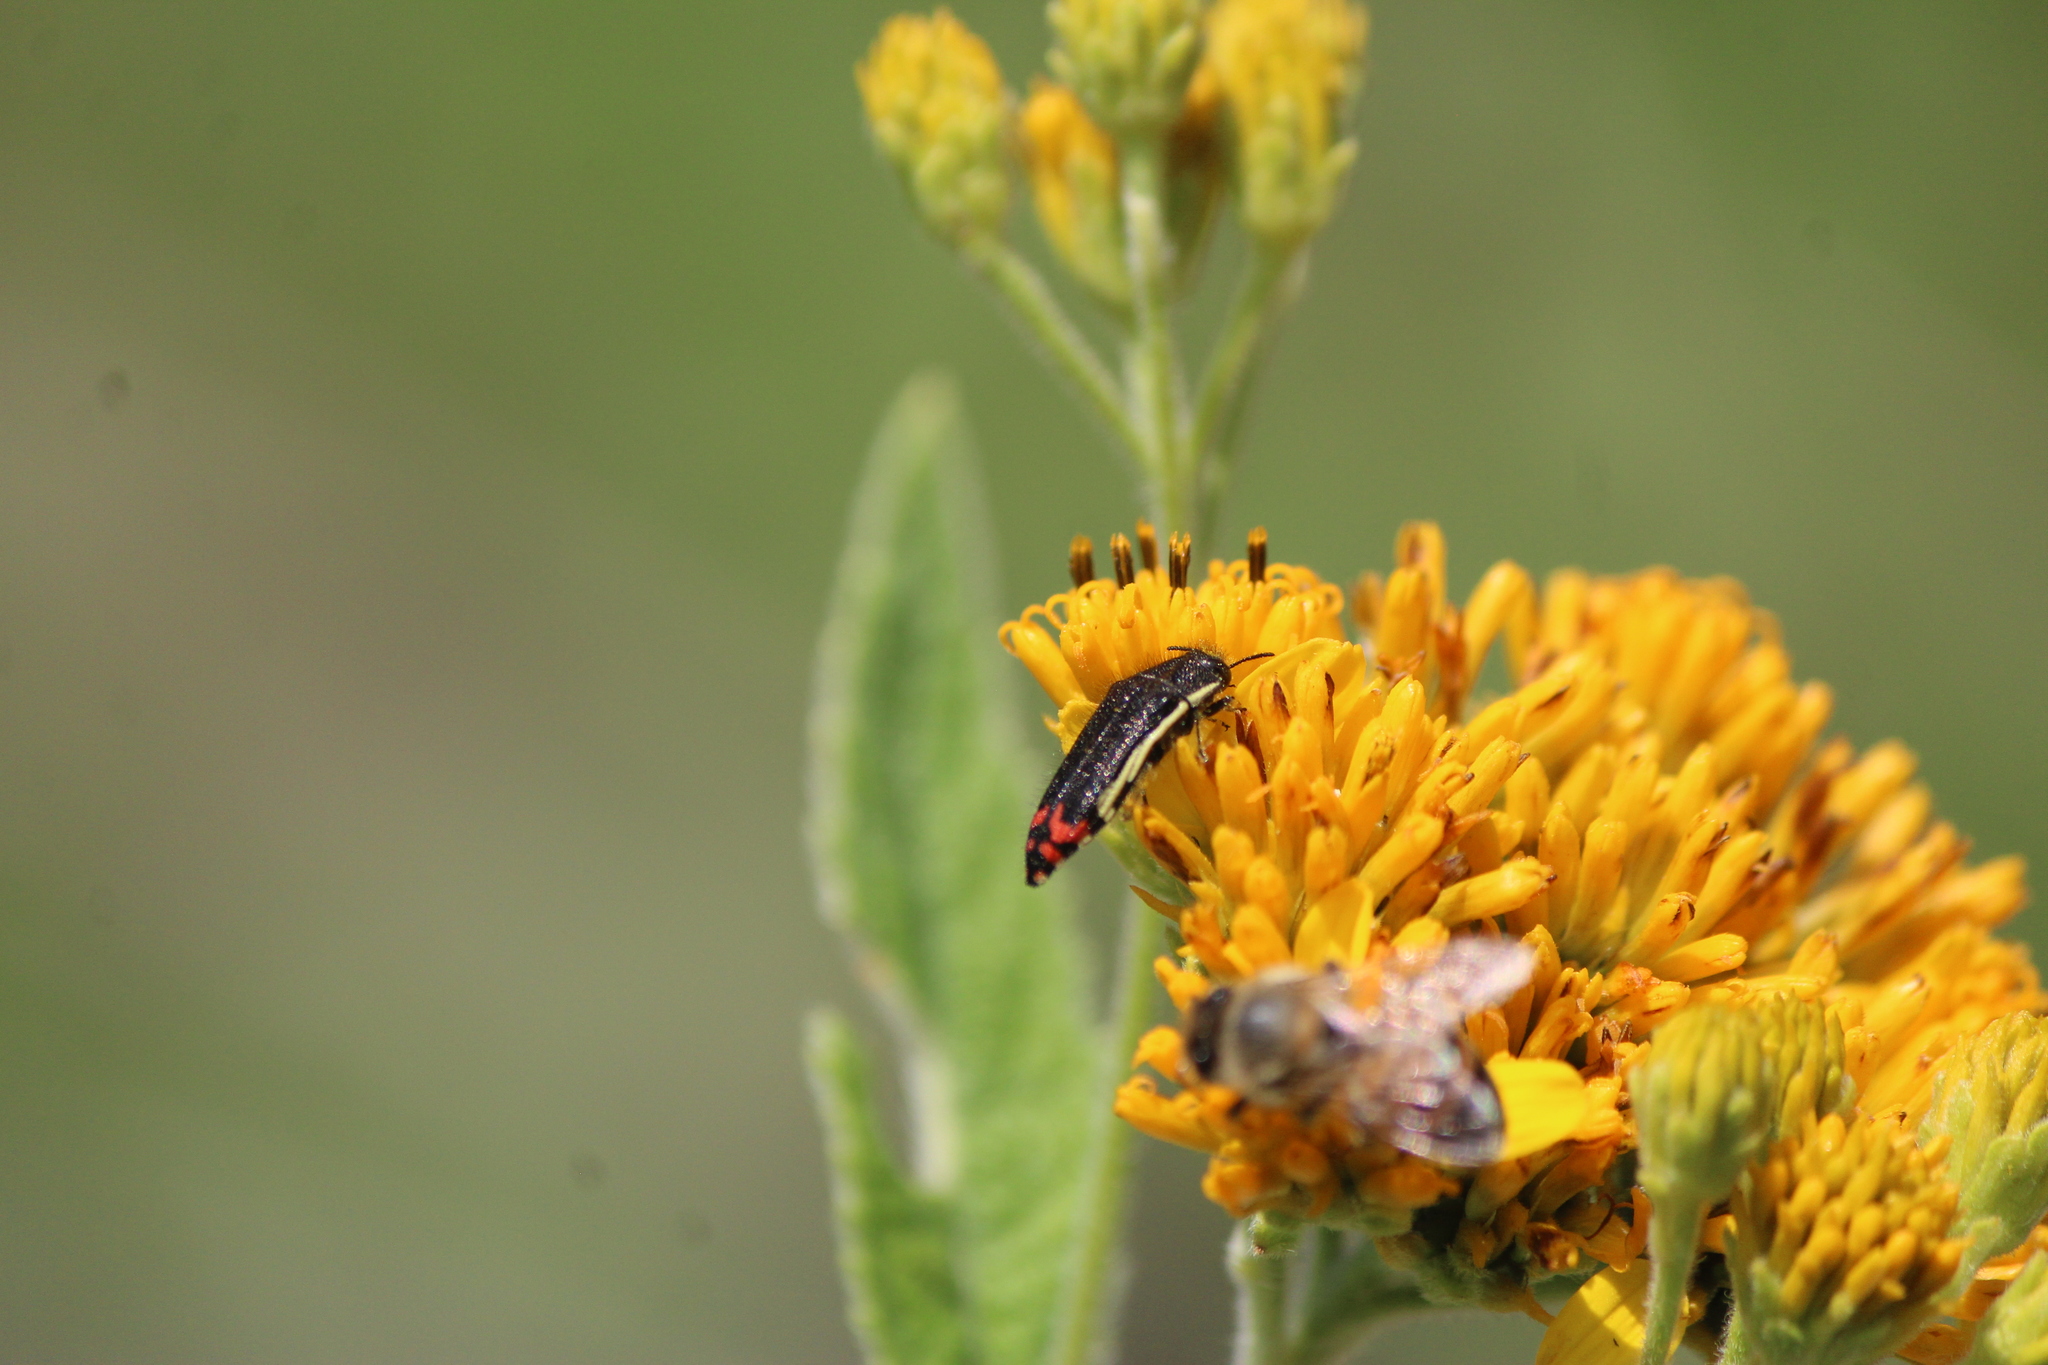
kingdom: Animalia
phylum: Arthropoda
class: Insecta
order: Coleoptera
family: Buprestidae
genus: Acmaeodera
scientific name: Acmaeodera flavomarginata
